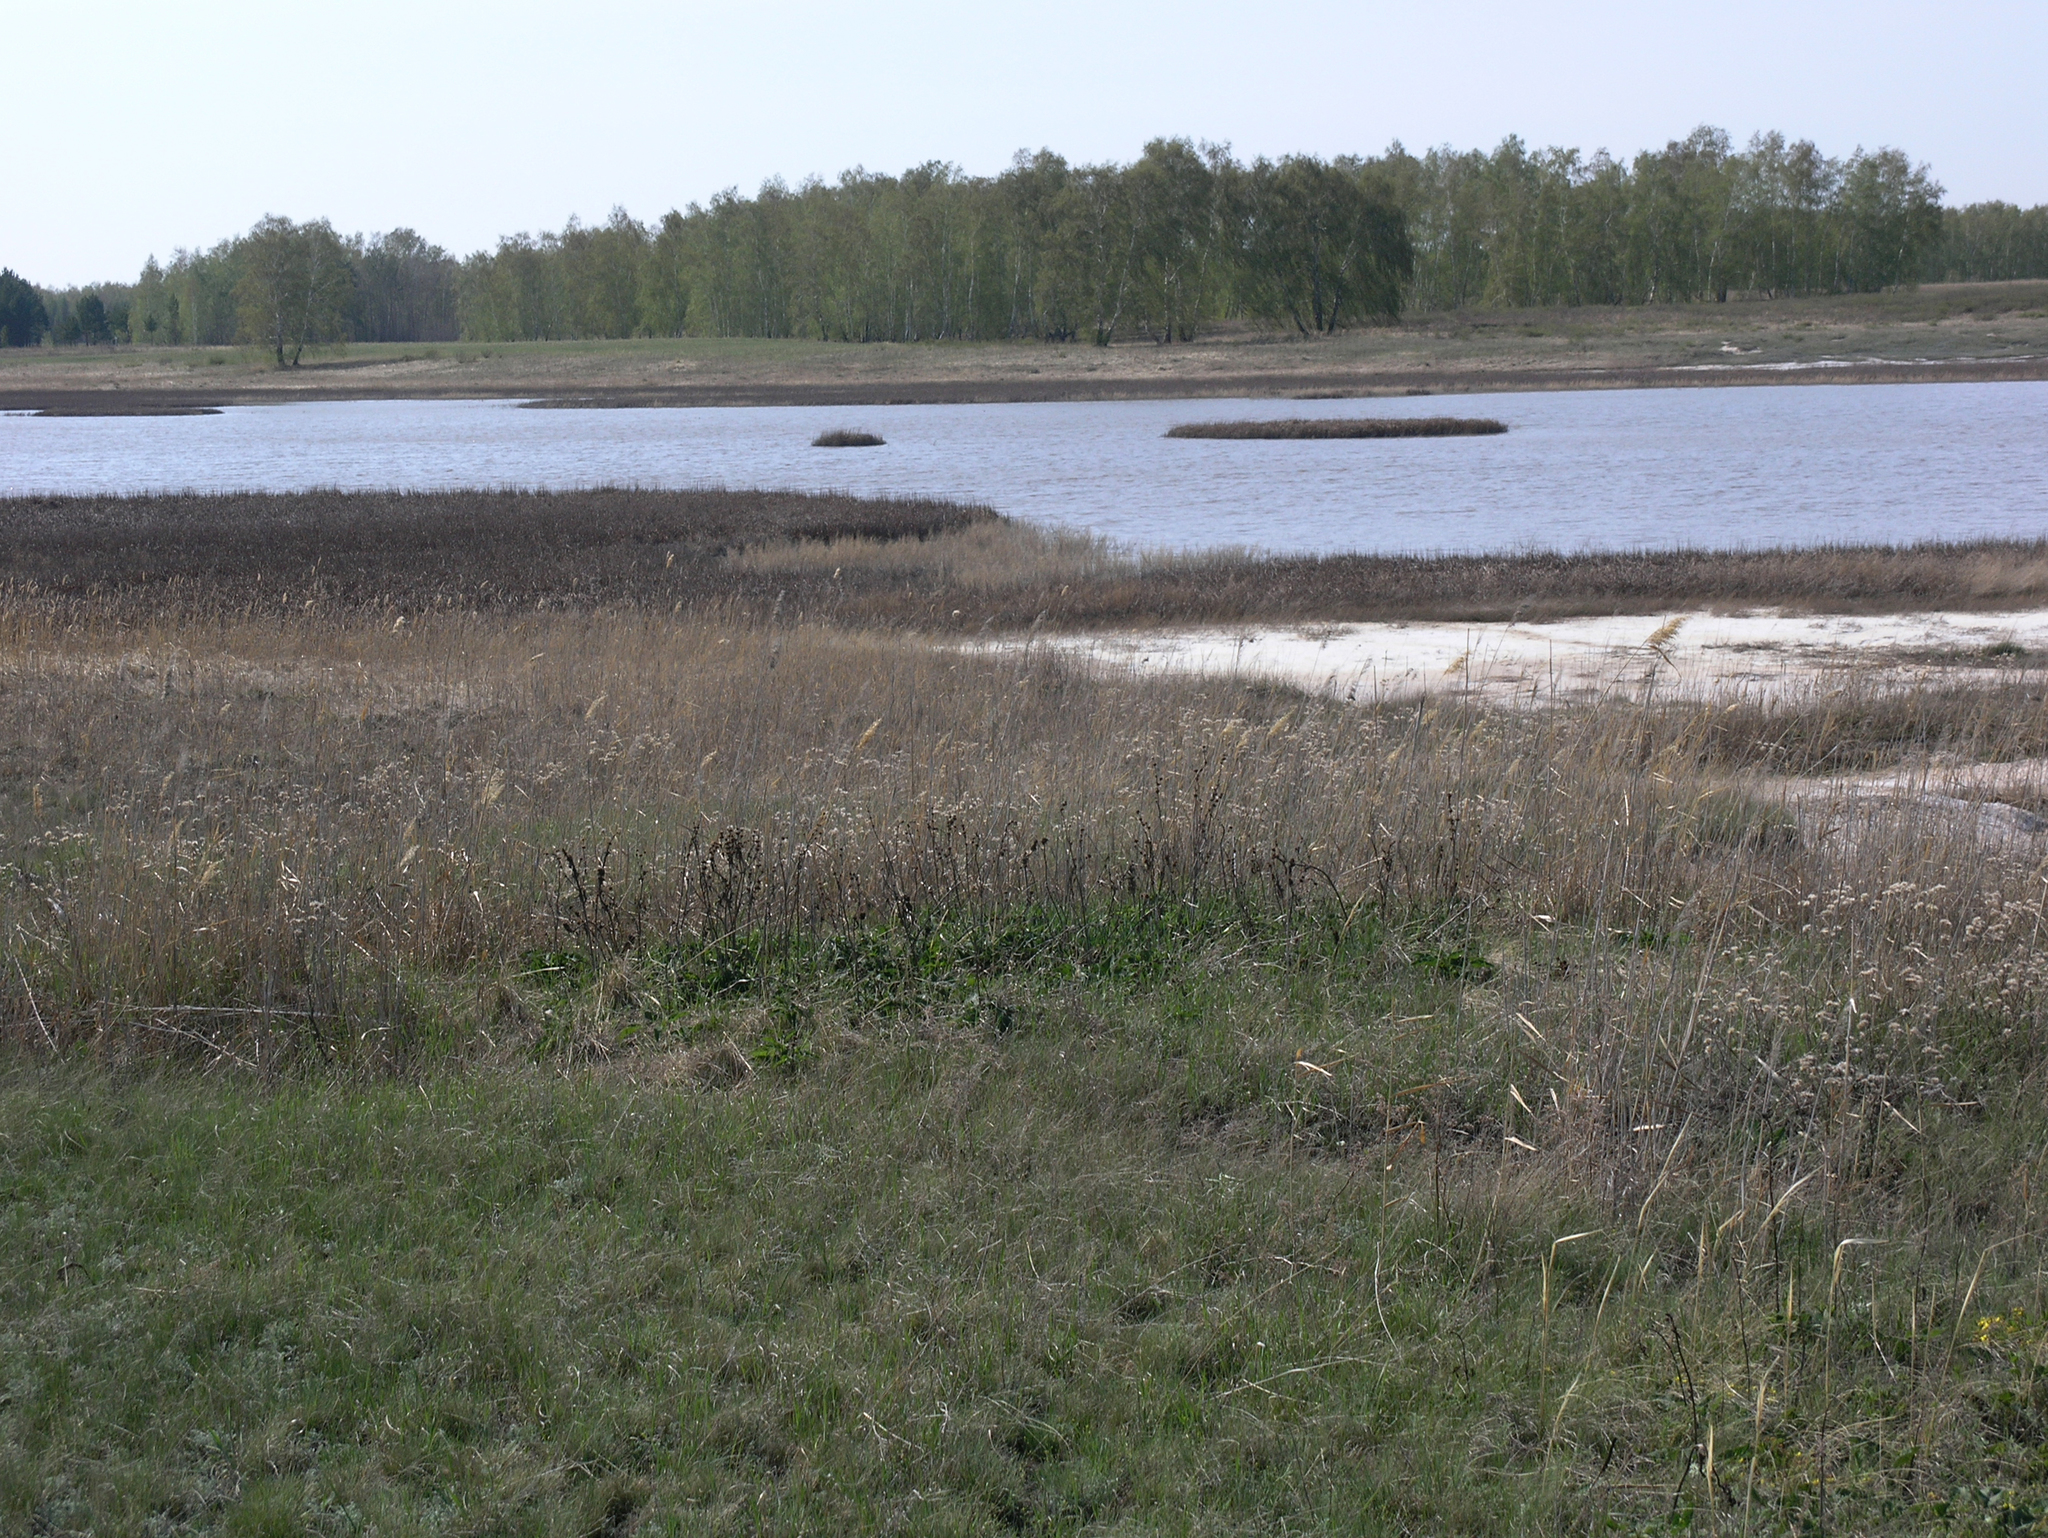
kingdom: Plantae
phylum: Tracheophyta
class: Magnoliopsida
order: Fagales
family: Betulaceae
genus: Betula
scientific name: Betula pendula
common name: Silver birch
